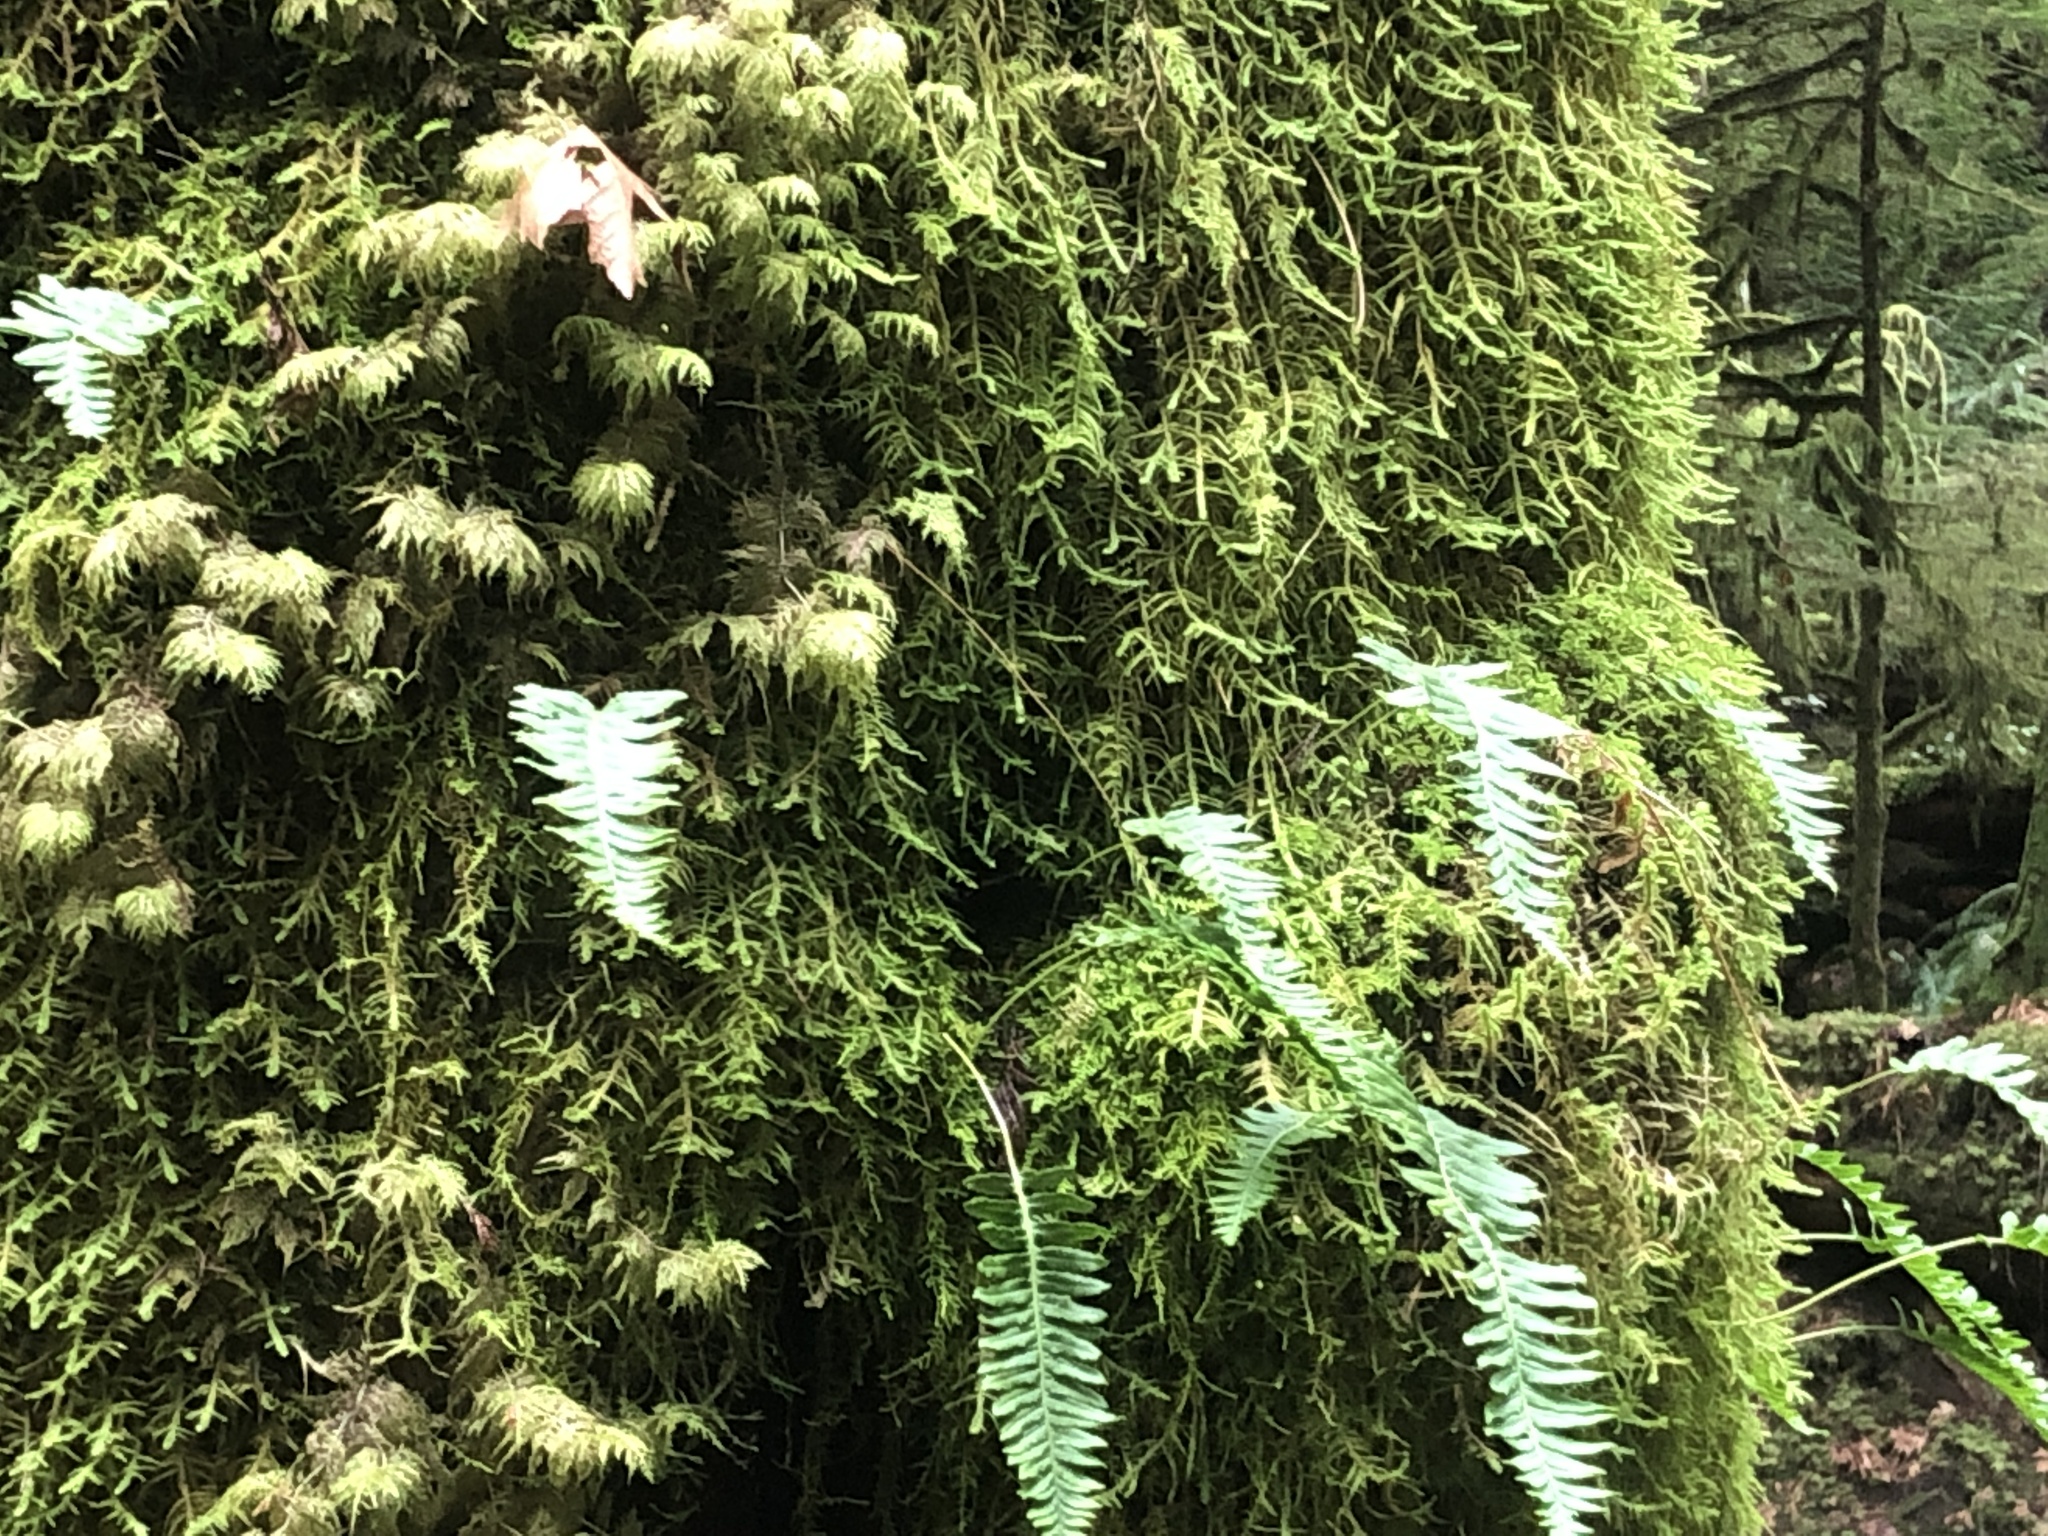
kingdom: Plantae
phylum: Tracheophyta
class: Polypodiopsida
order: Polypodiales
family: Polypodiaceae
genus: Polypodium
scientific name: Polypodium glycyrrhiza
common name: Licorice fern
